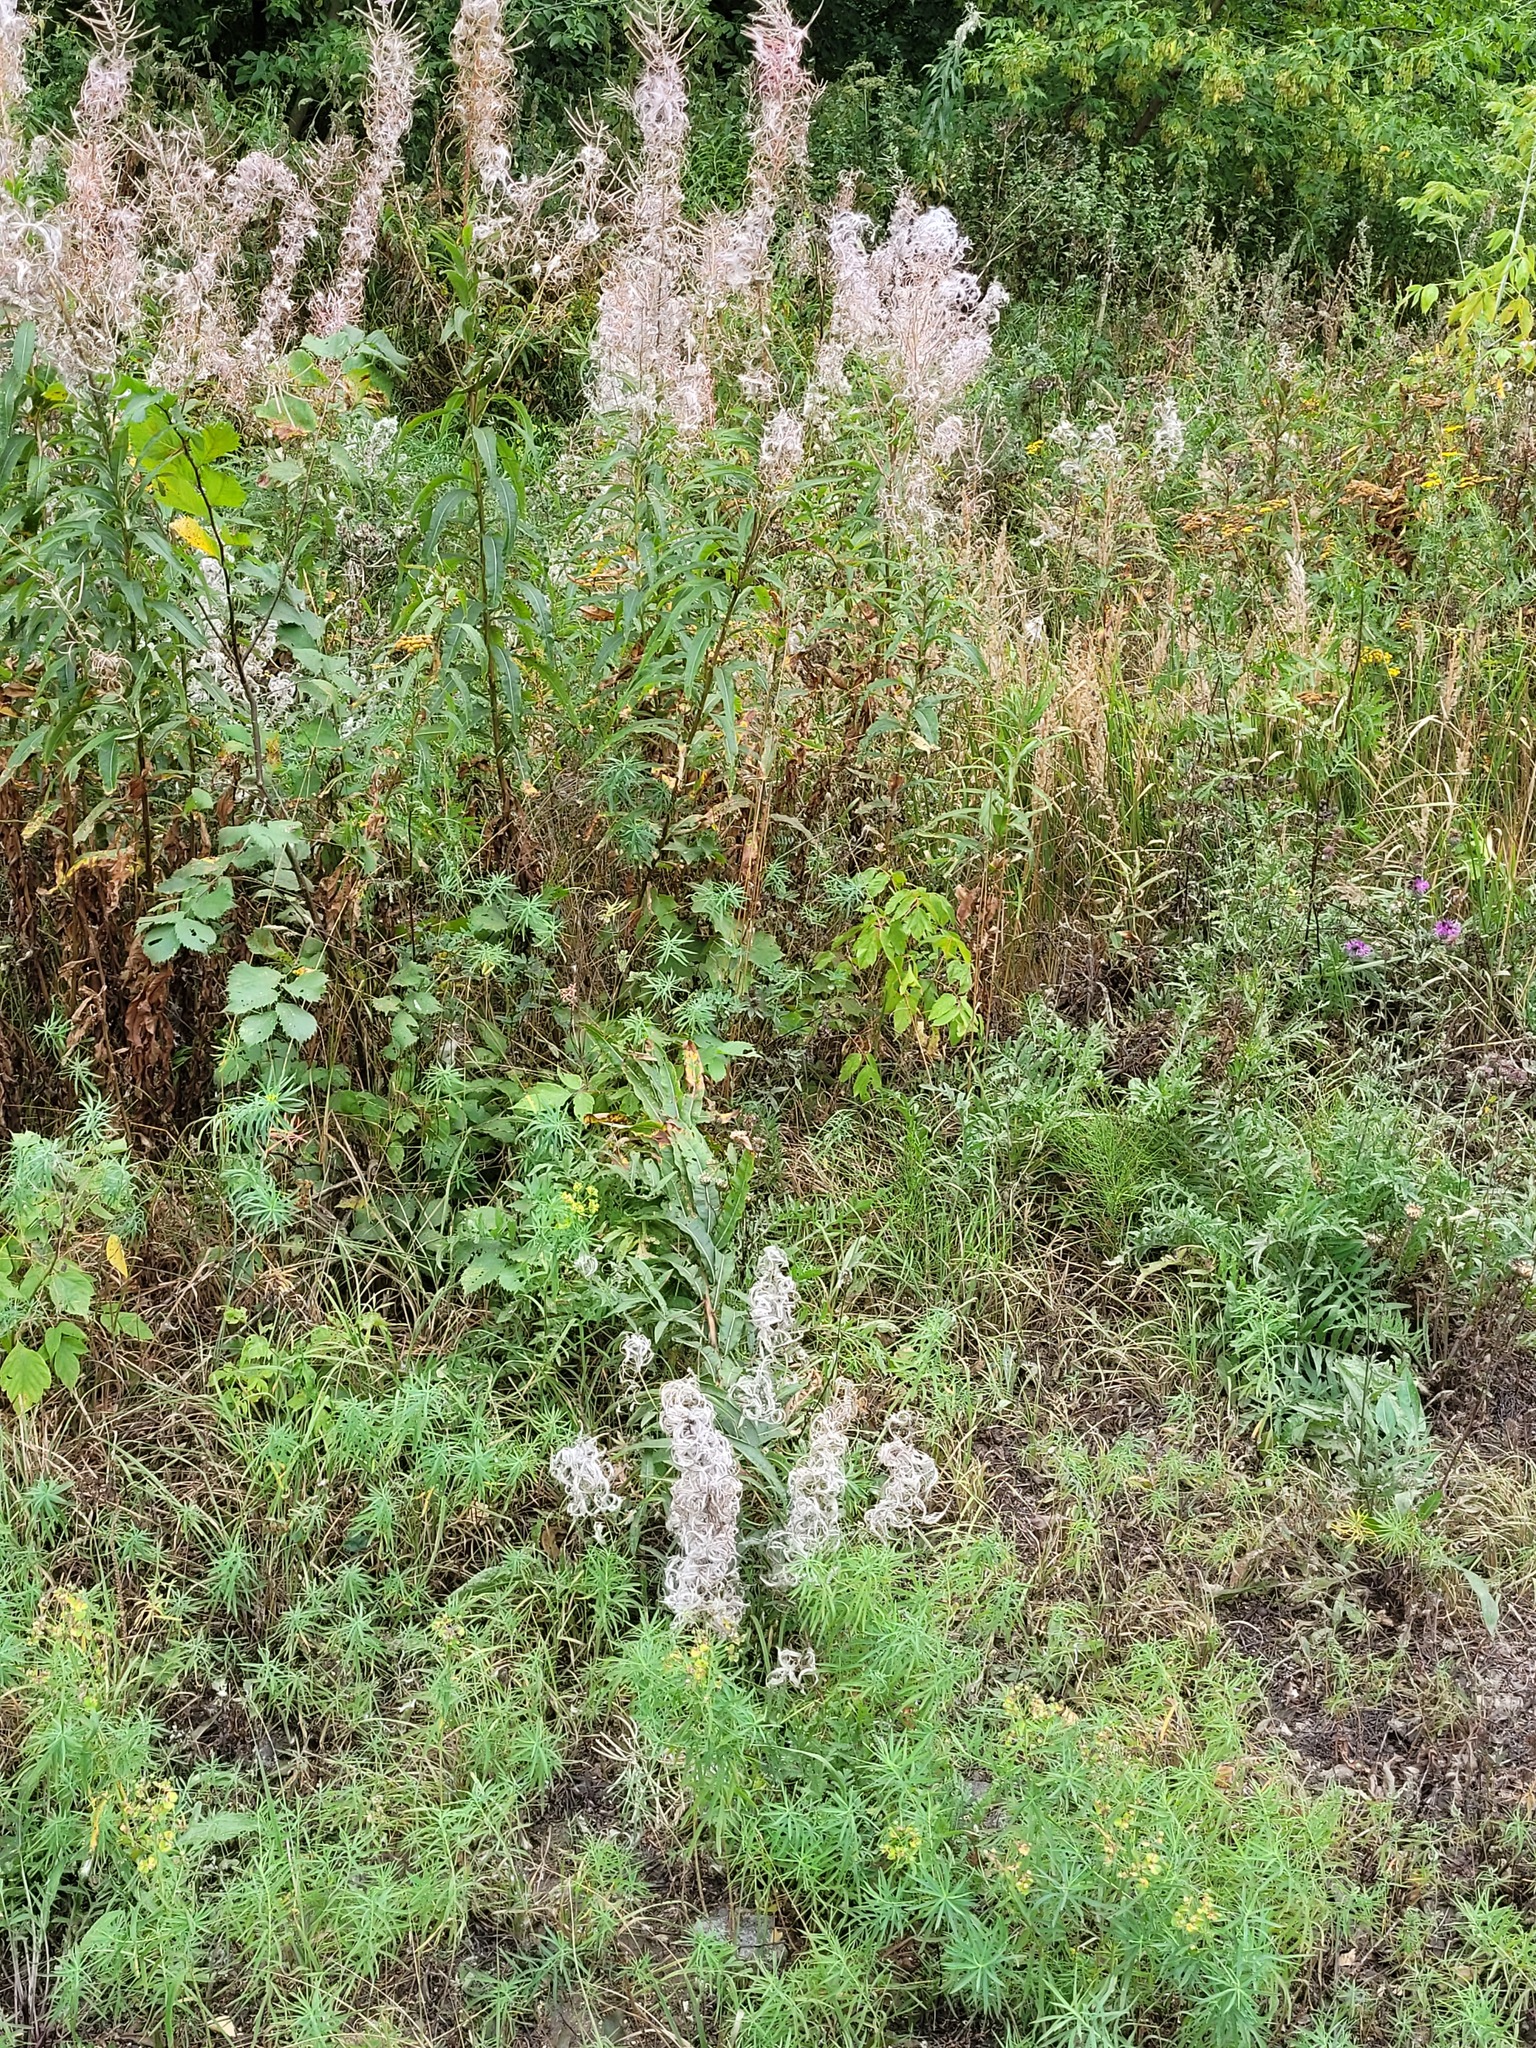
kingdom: Plantae
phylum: Tracheophyta
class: Magnoliopsida
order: Myrtales
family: Onagraceae
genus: Chamaenerion
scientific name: Chamaenerion angustifolium
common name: Fireweed
